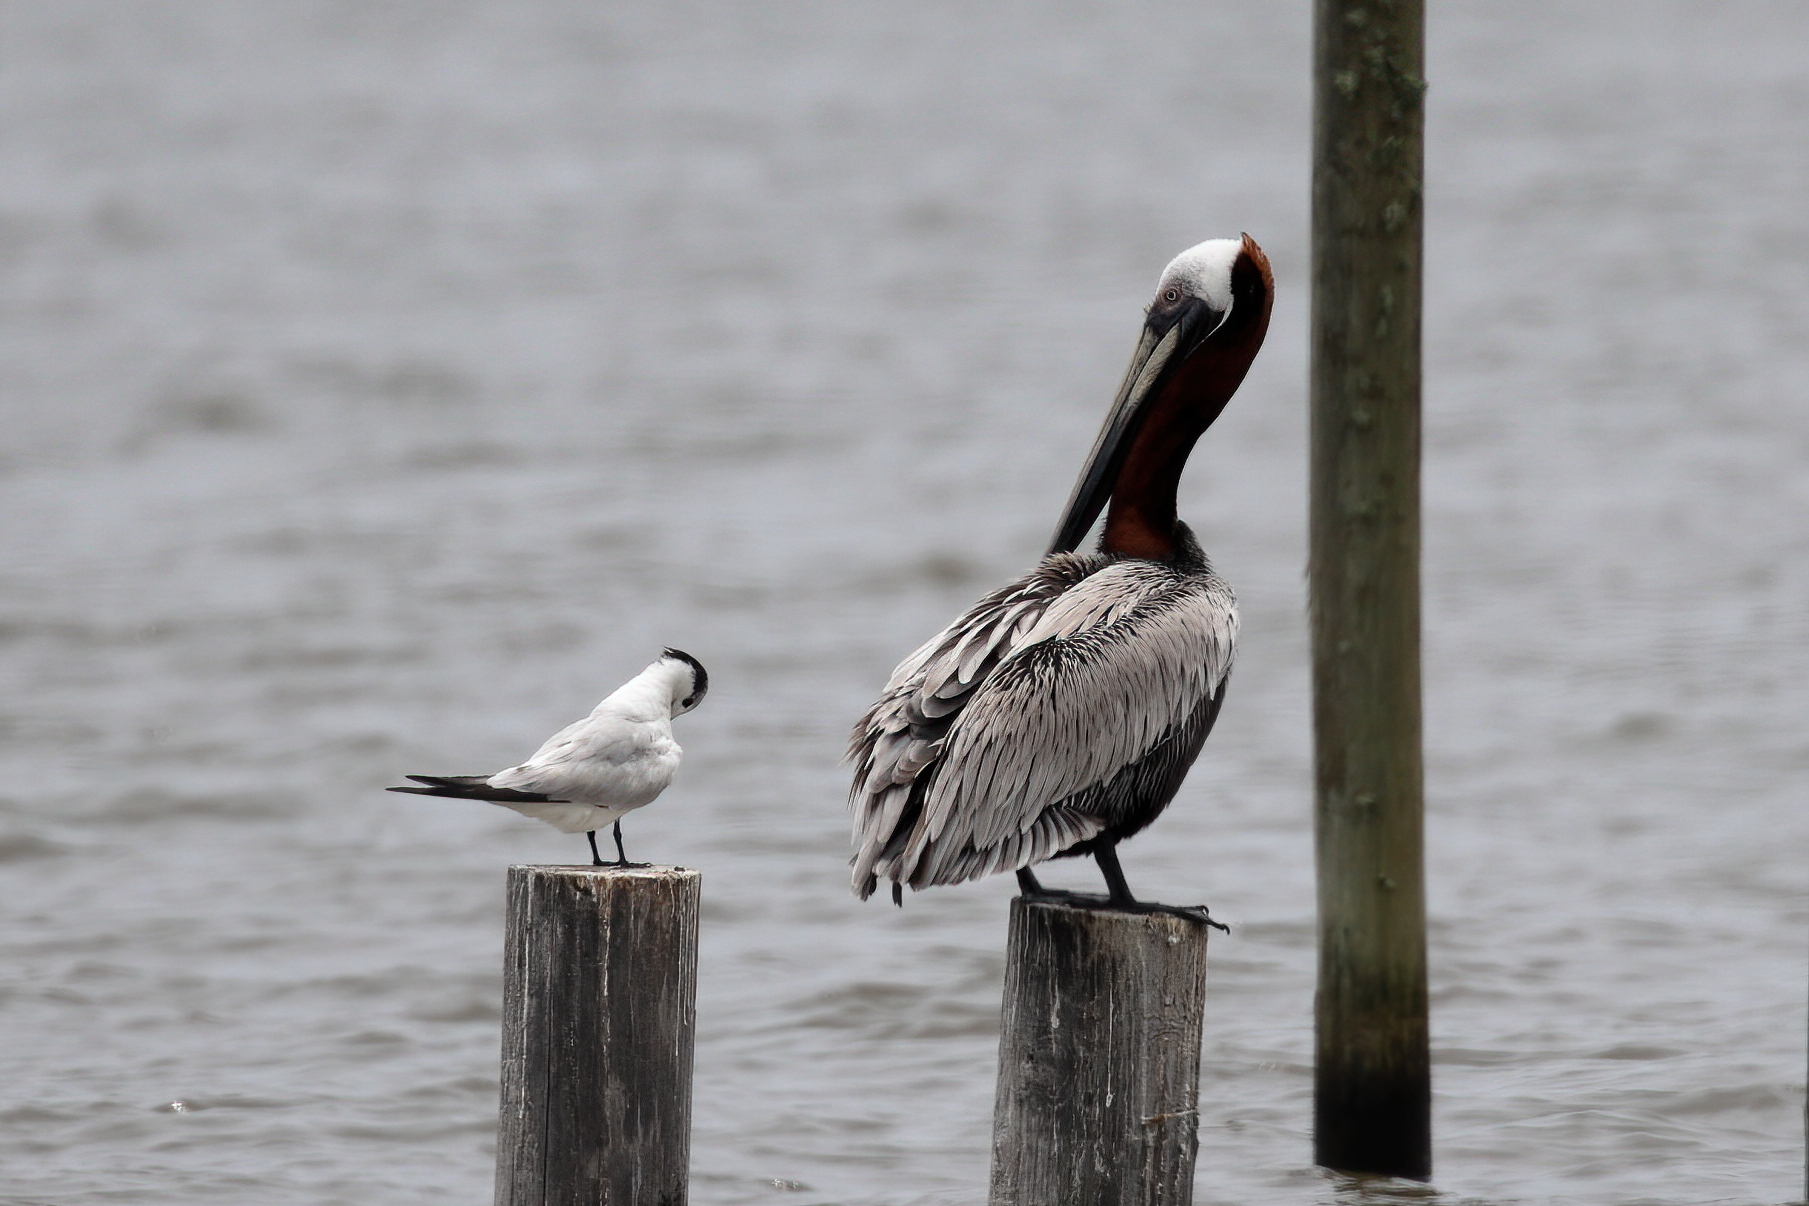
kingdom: Animalia
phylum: Chordata
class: Aves
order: Pelecaniformes
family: Pelecanidae
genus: Pelecanus
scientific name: Pelecanus occidentalis
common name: Brown pelican
